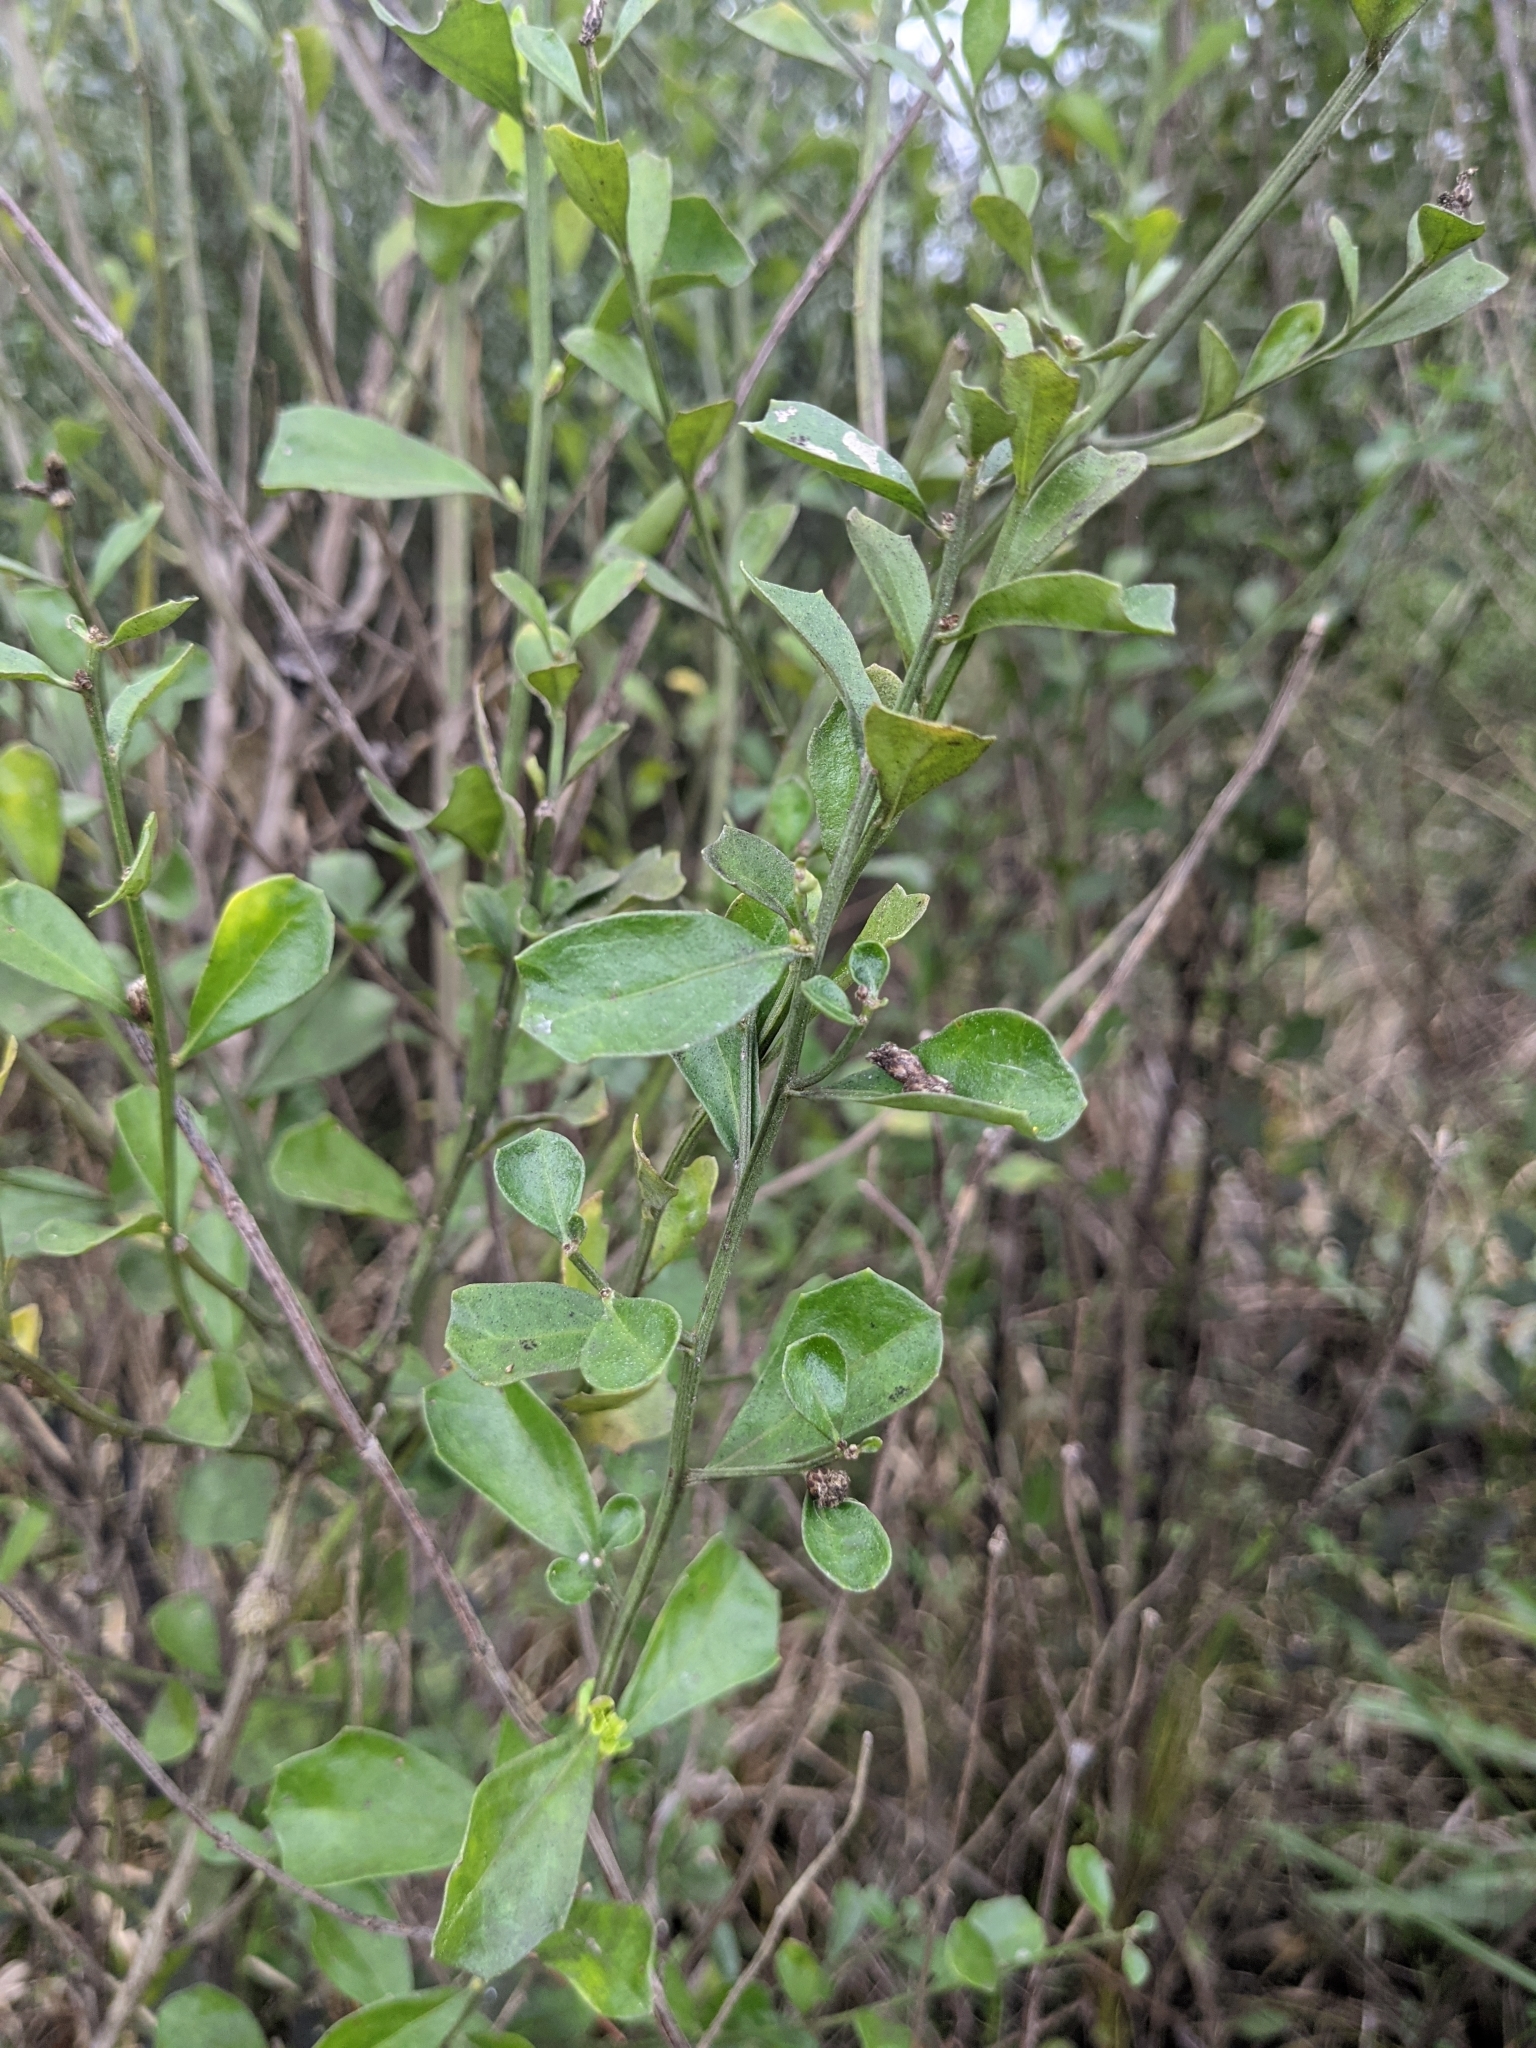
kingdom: Plantae
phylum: Tracheophyta
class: Magnoliopsida
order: Asterales
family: Asteraceae
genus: Baccharis
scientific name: Baccharis glomeruliflora
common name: Silverling groundsel bush
